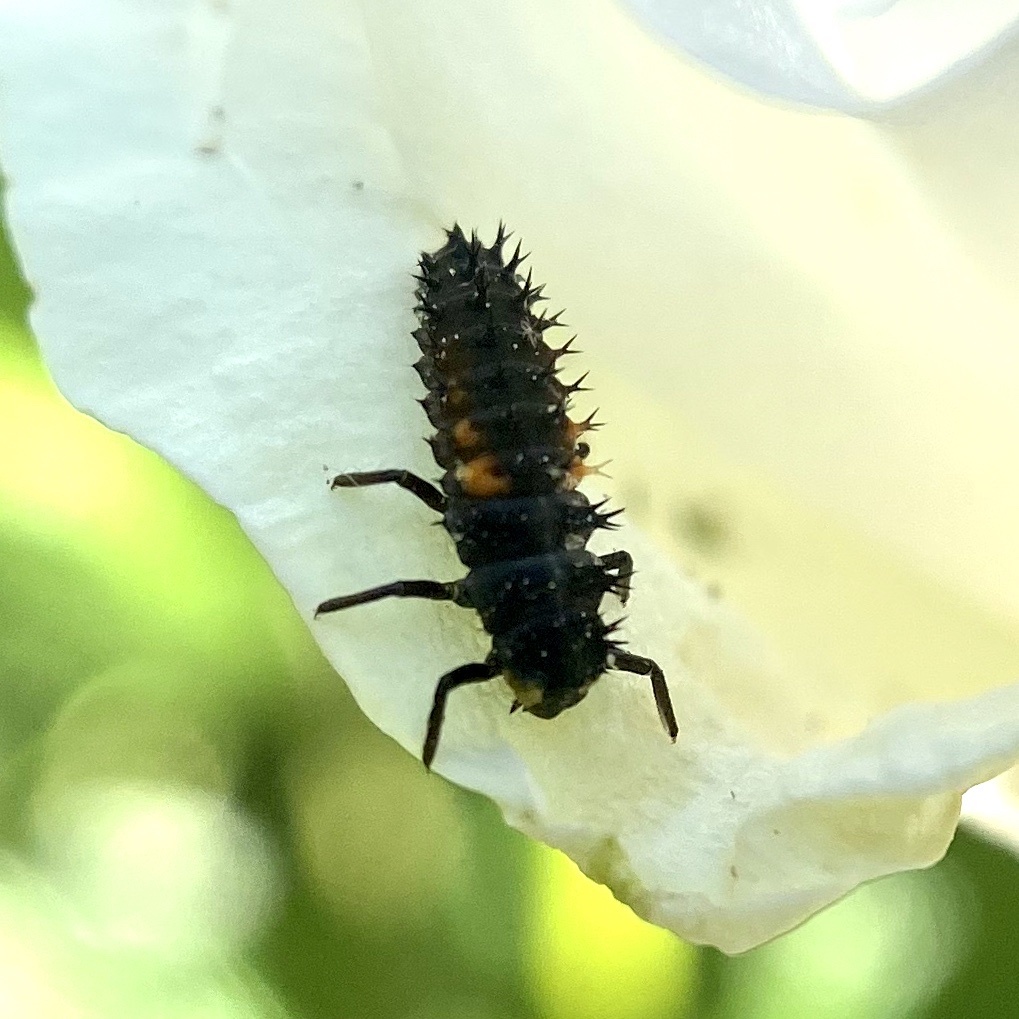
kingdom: Animalia
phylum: Arthropoda
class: Insecta
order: Coleoptera
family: Coccinellidae
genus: Harmonia
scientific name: Harmonia axyridis
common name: Harlequin ladybird
